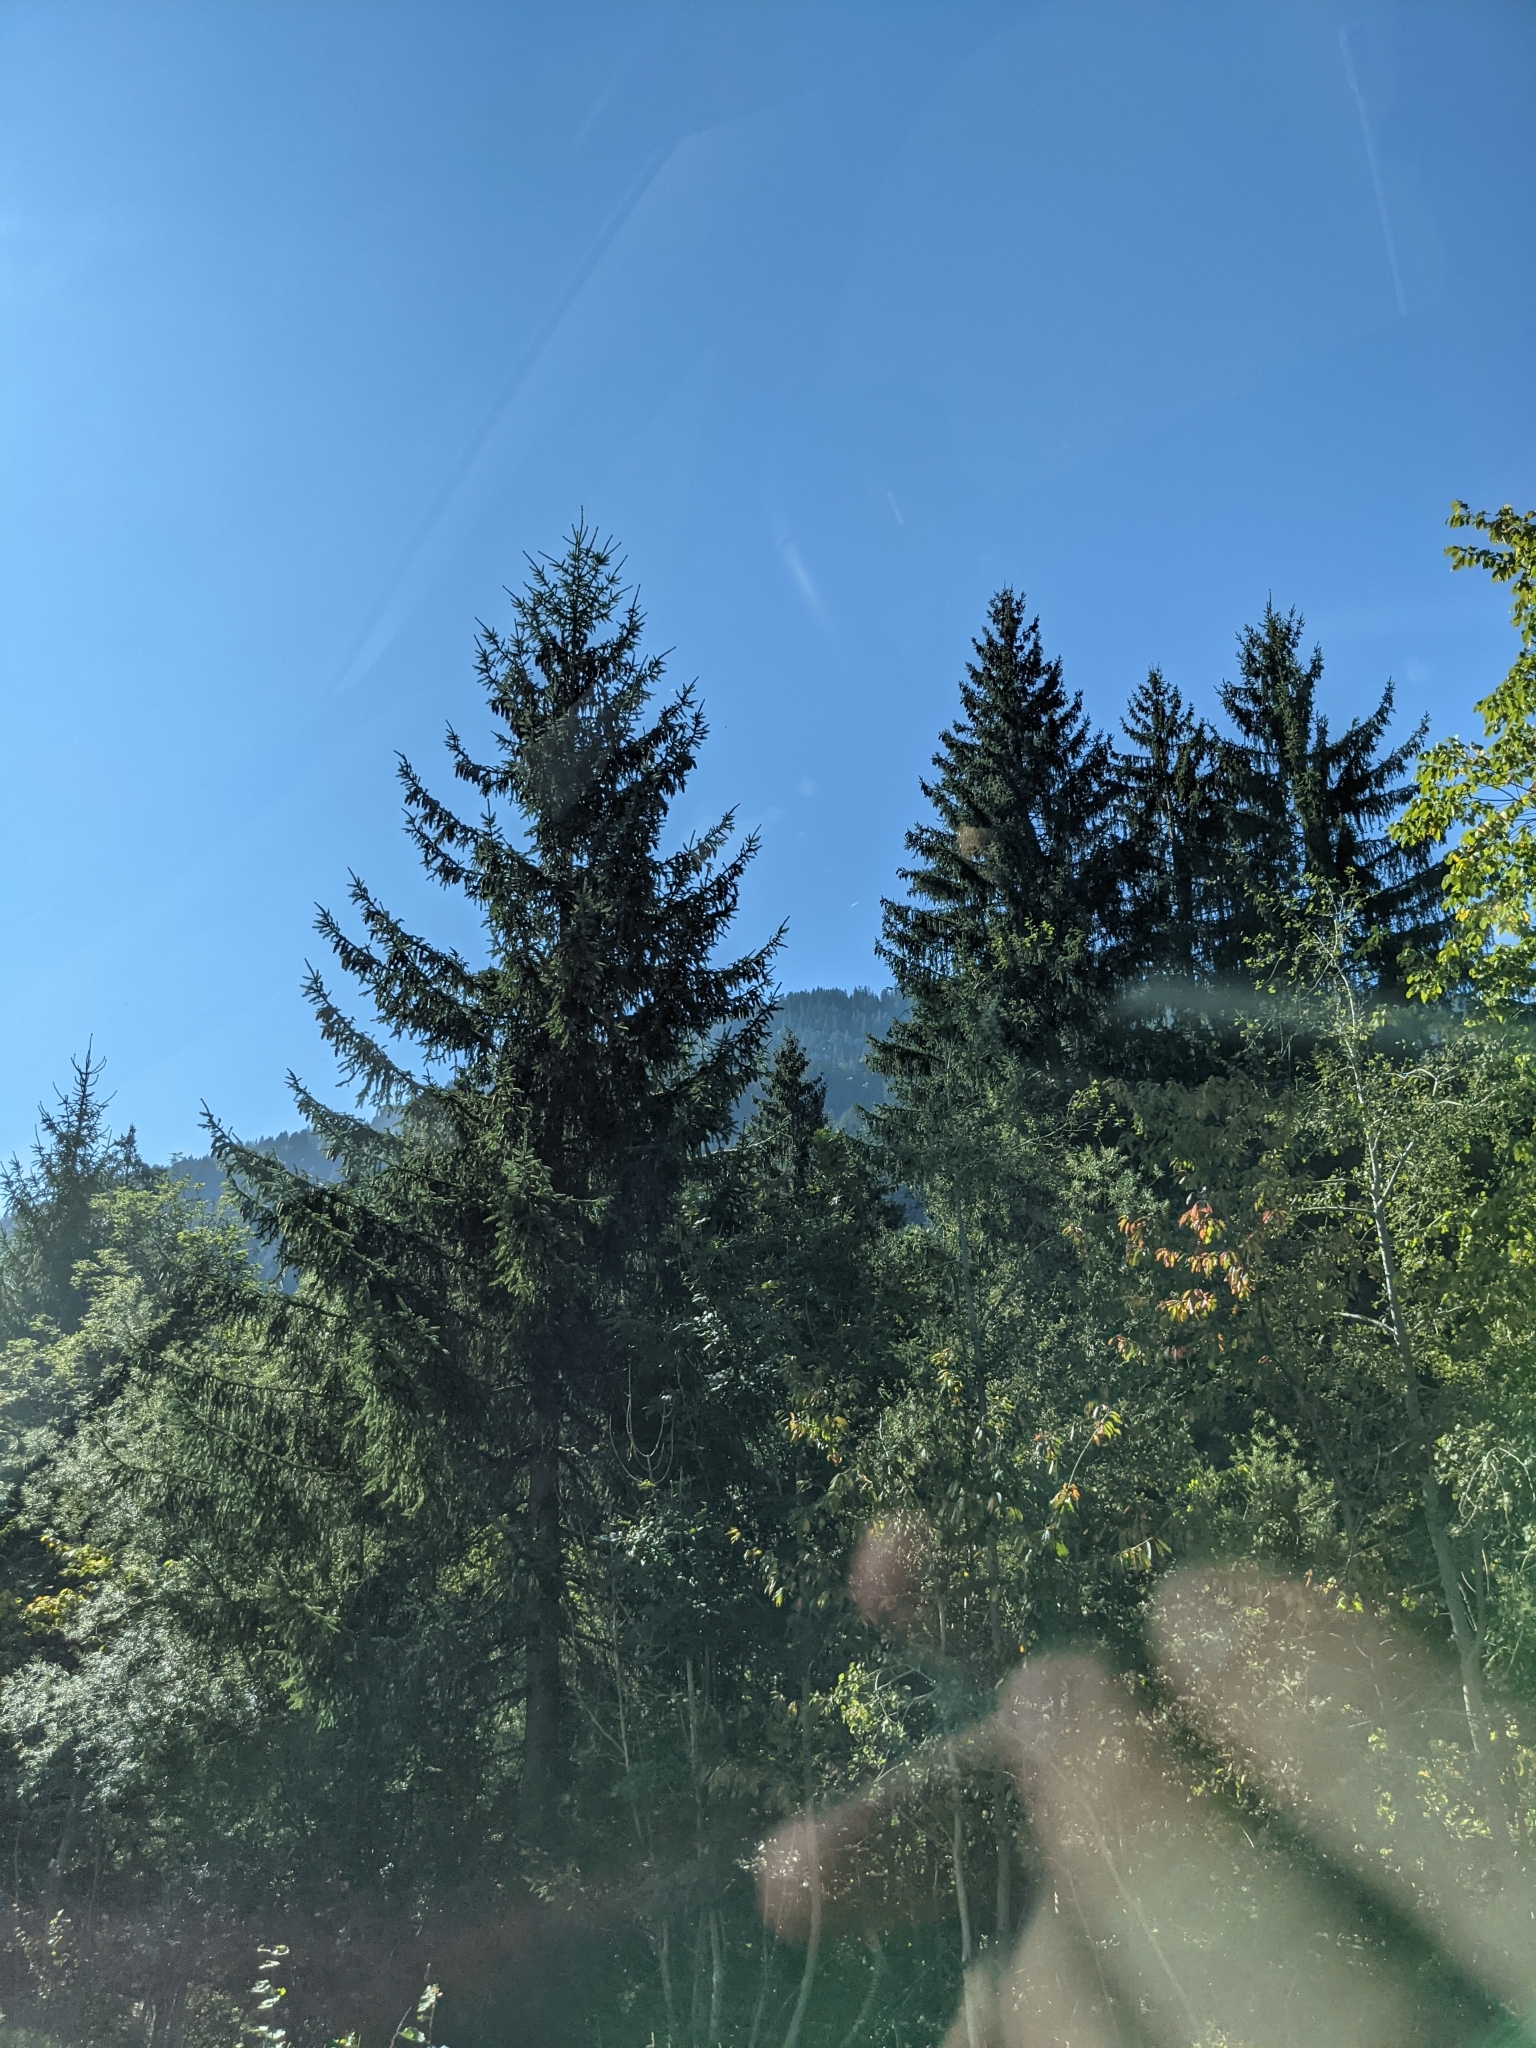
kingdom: Plantae
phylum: Tracheophyta
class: Pinopsida
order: Pinales
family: Pinaceae
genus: Picea
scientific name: Picea abies
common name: Norway spruce
